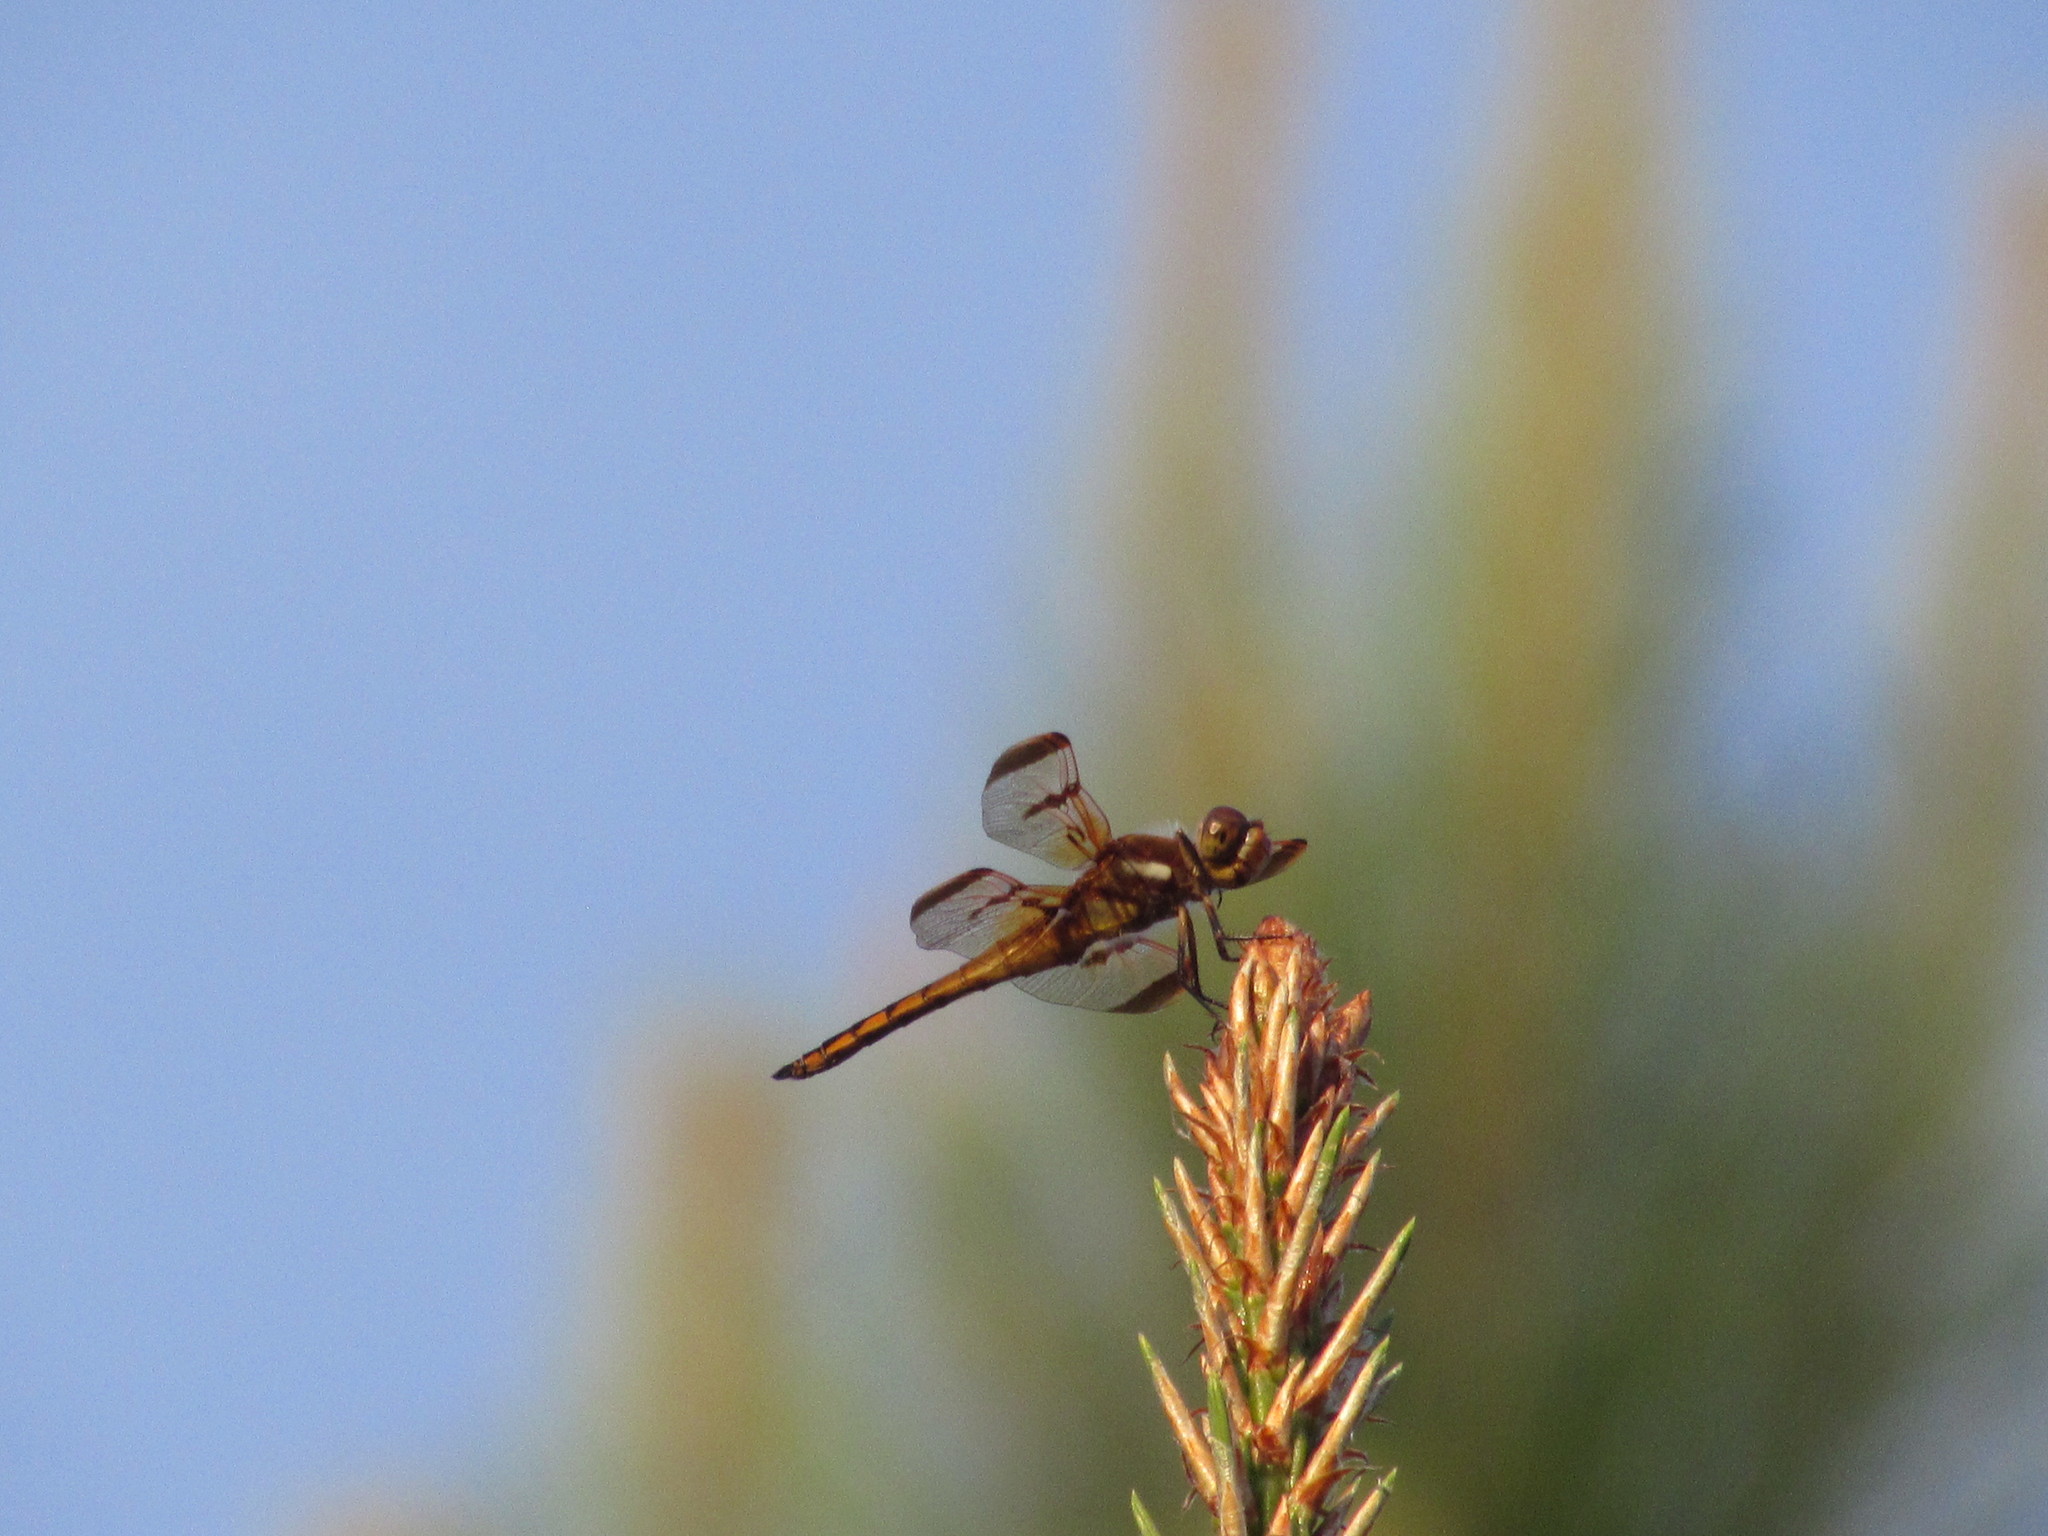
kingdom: Animalia
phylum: Arthropoda
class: Insecta
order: Odonata
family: Libellulidae
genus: Libellula
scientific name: Libellula semifasciata
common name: Painted skimmer
